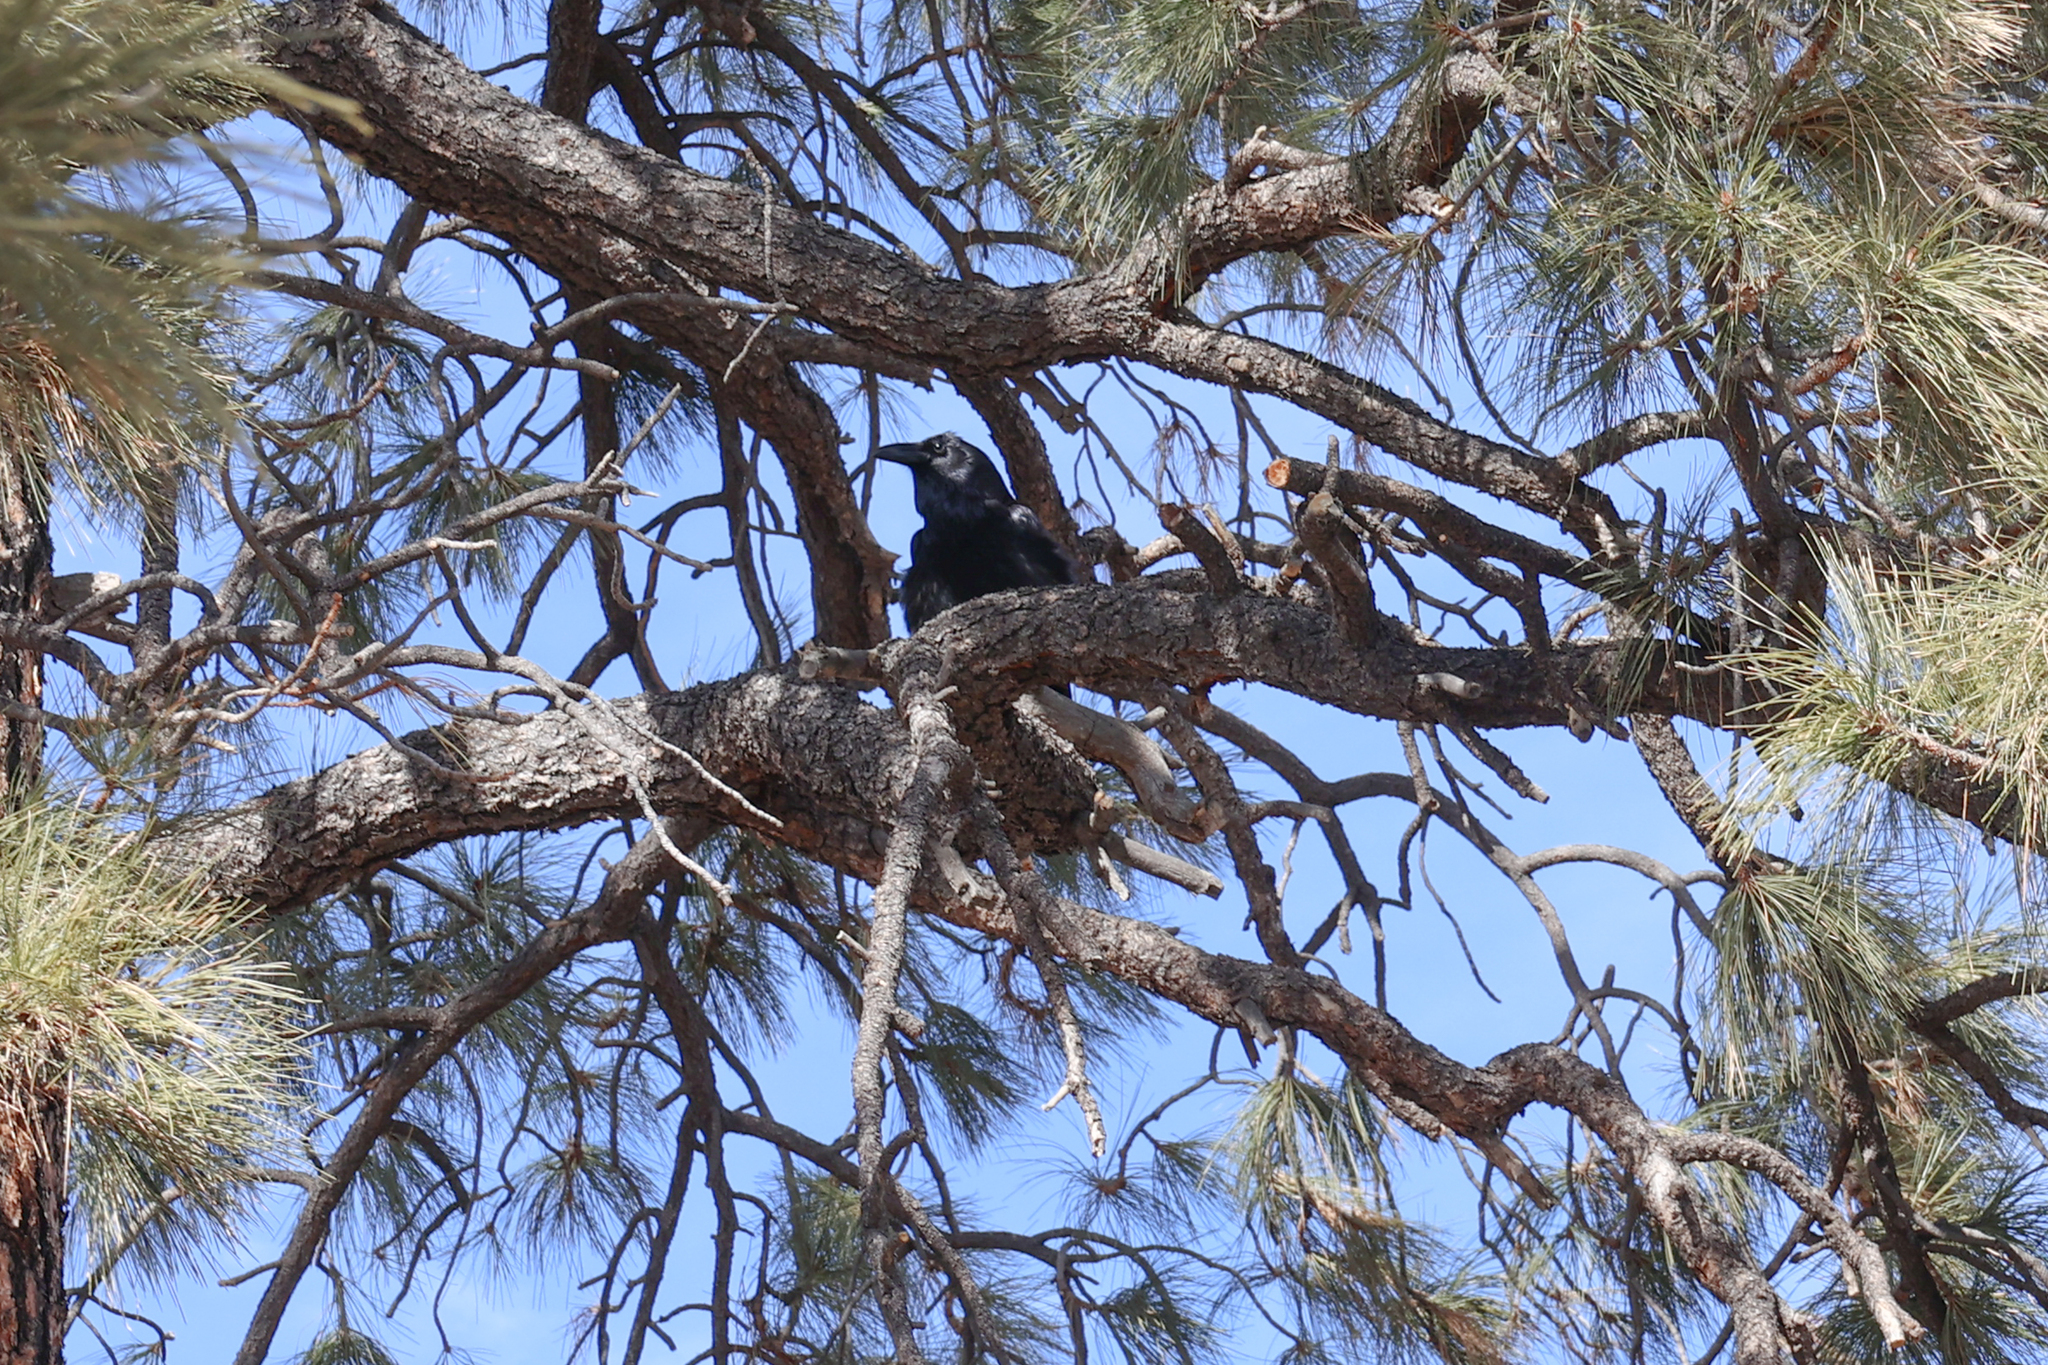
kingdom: Animalia
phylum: Chordata
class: Aves
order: Passeriformes
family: Corvidae
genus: Corvus
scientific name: Corvus corax
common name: Common raven
